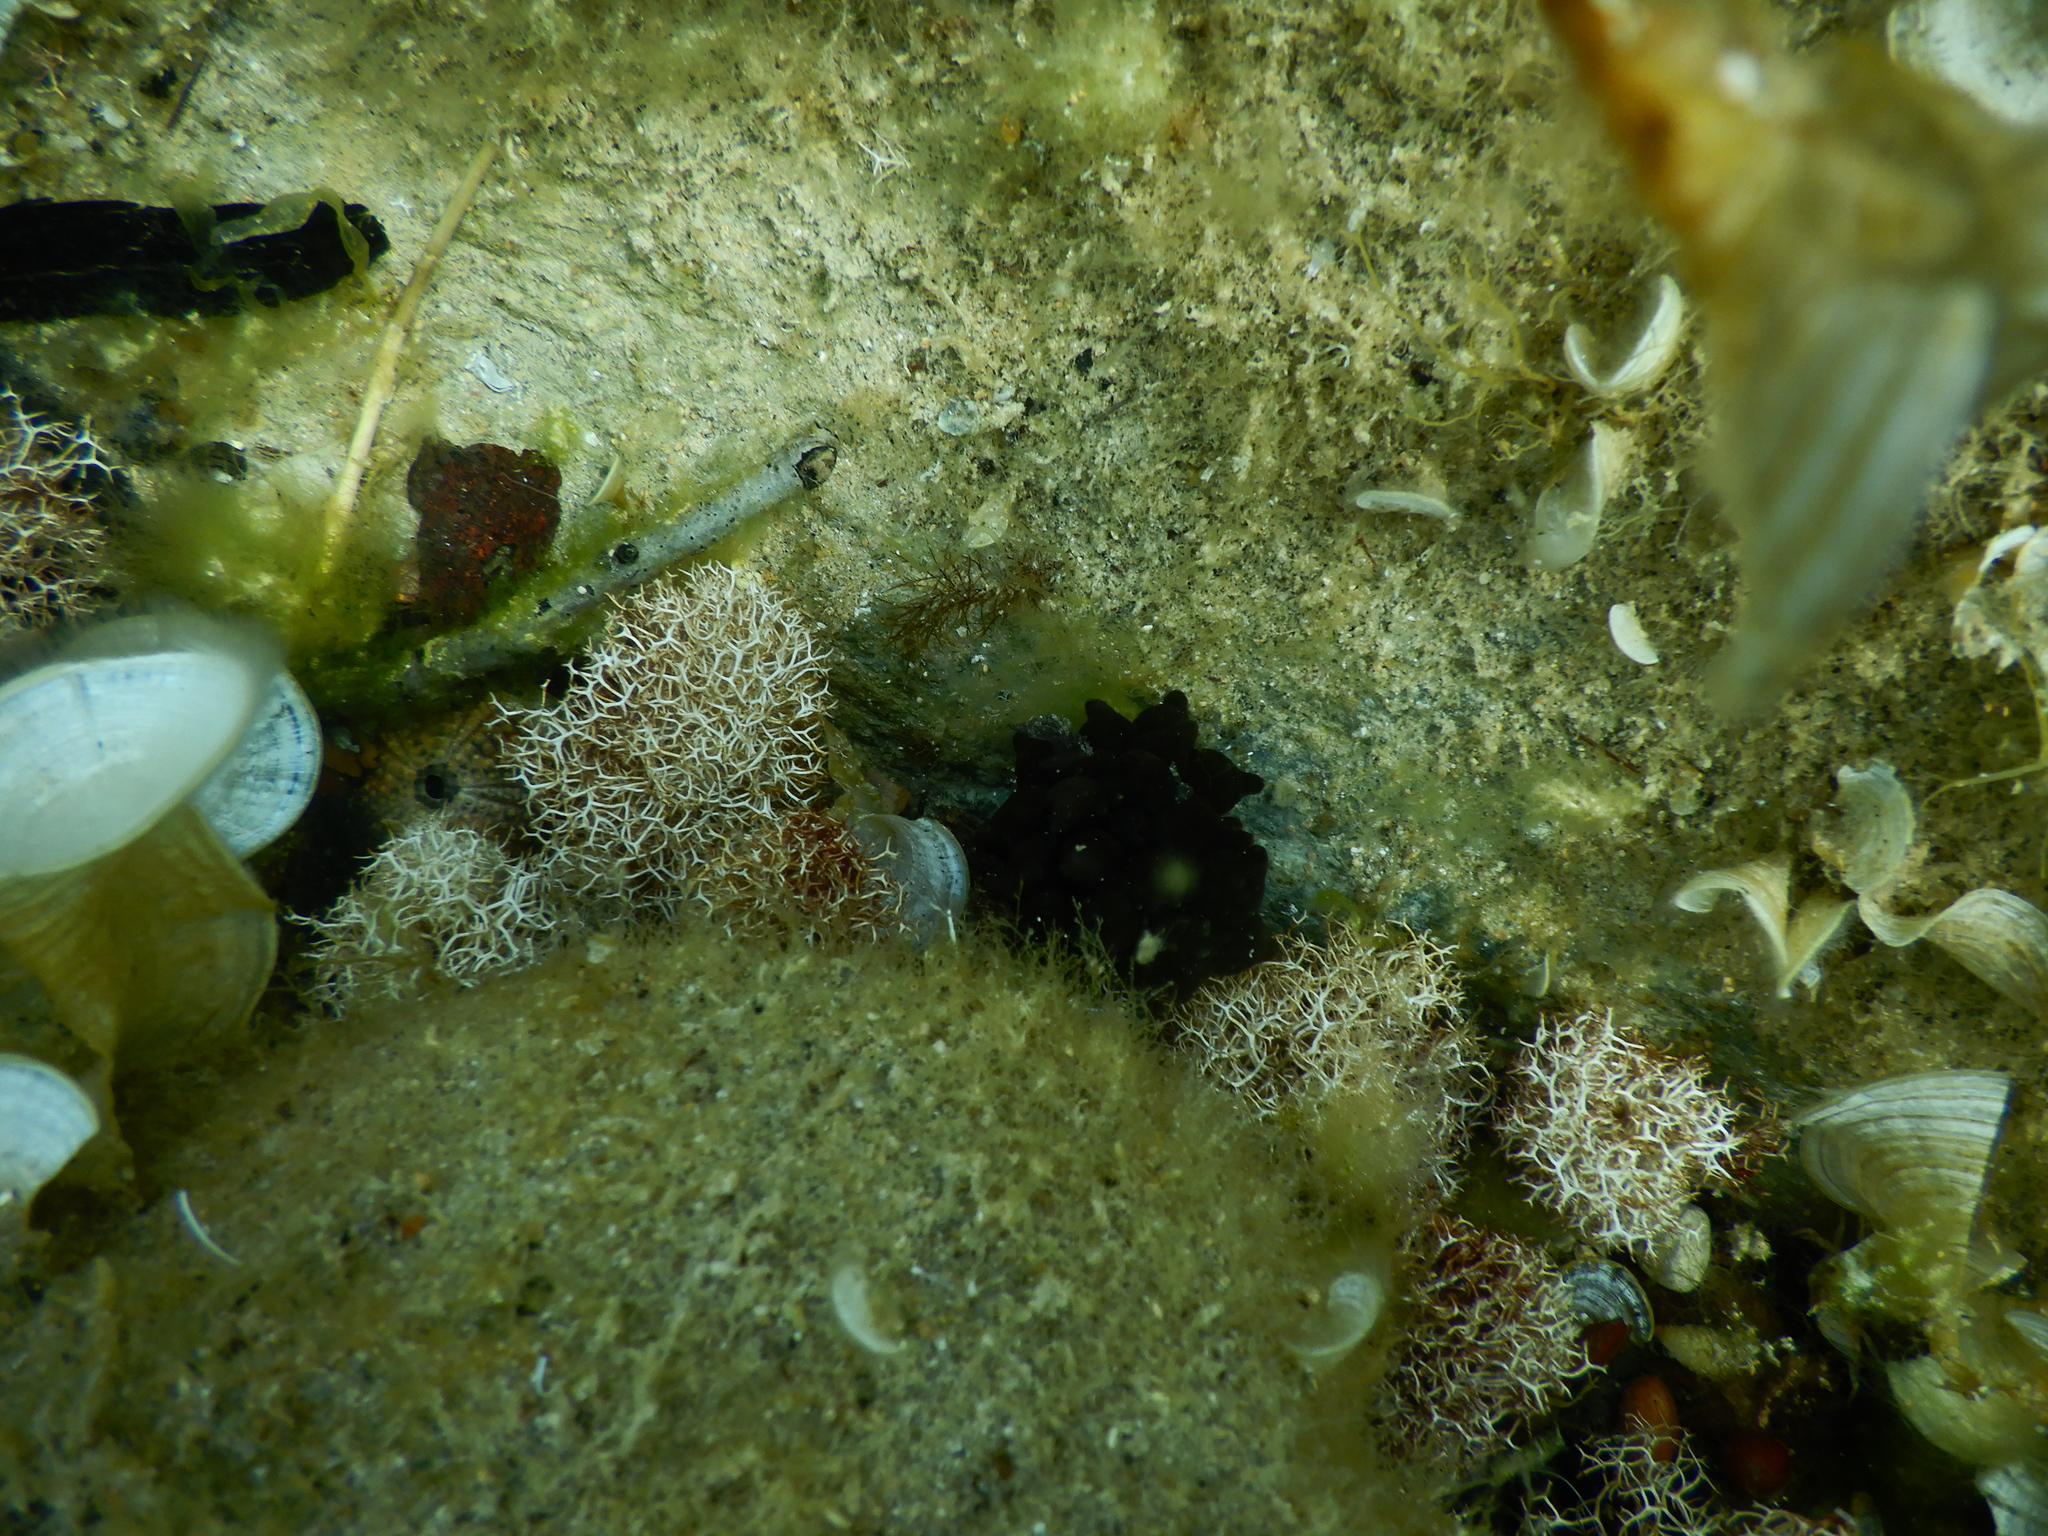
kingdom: Animalia
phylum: Mollusca
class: Cephalopoda
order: Sepiida
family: Sepiidae
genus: Sepia
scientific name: Sepia officinalis
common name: Common cuttlefish
